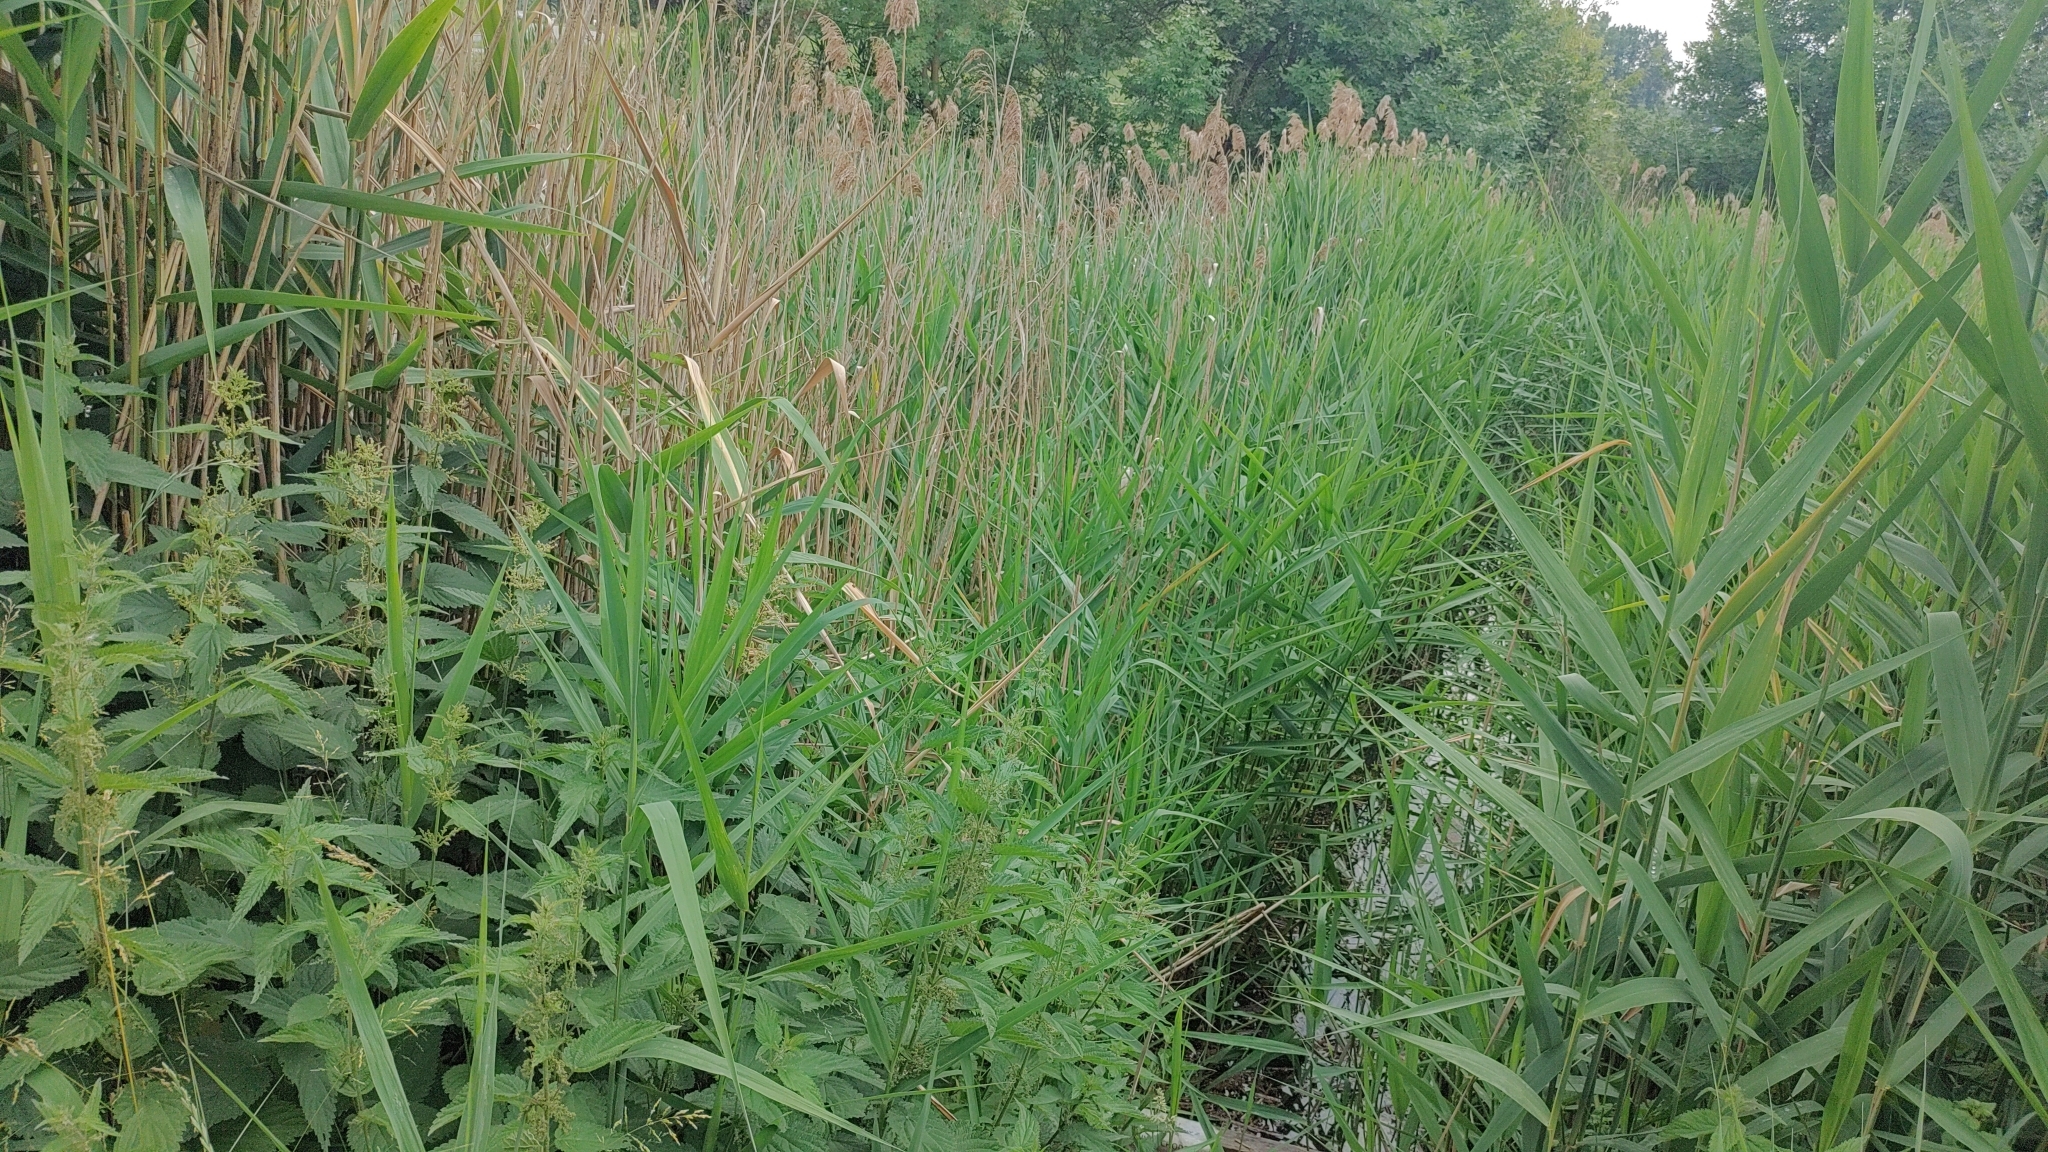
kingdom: Animalia
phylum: Chordata
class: Aves
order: Passeriformes
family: Acrocephalidae
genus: Acrocephalus
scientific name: Acrocephalus scirpaceus
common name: Eurasian reed warbler
